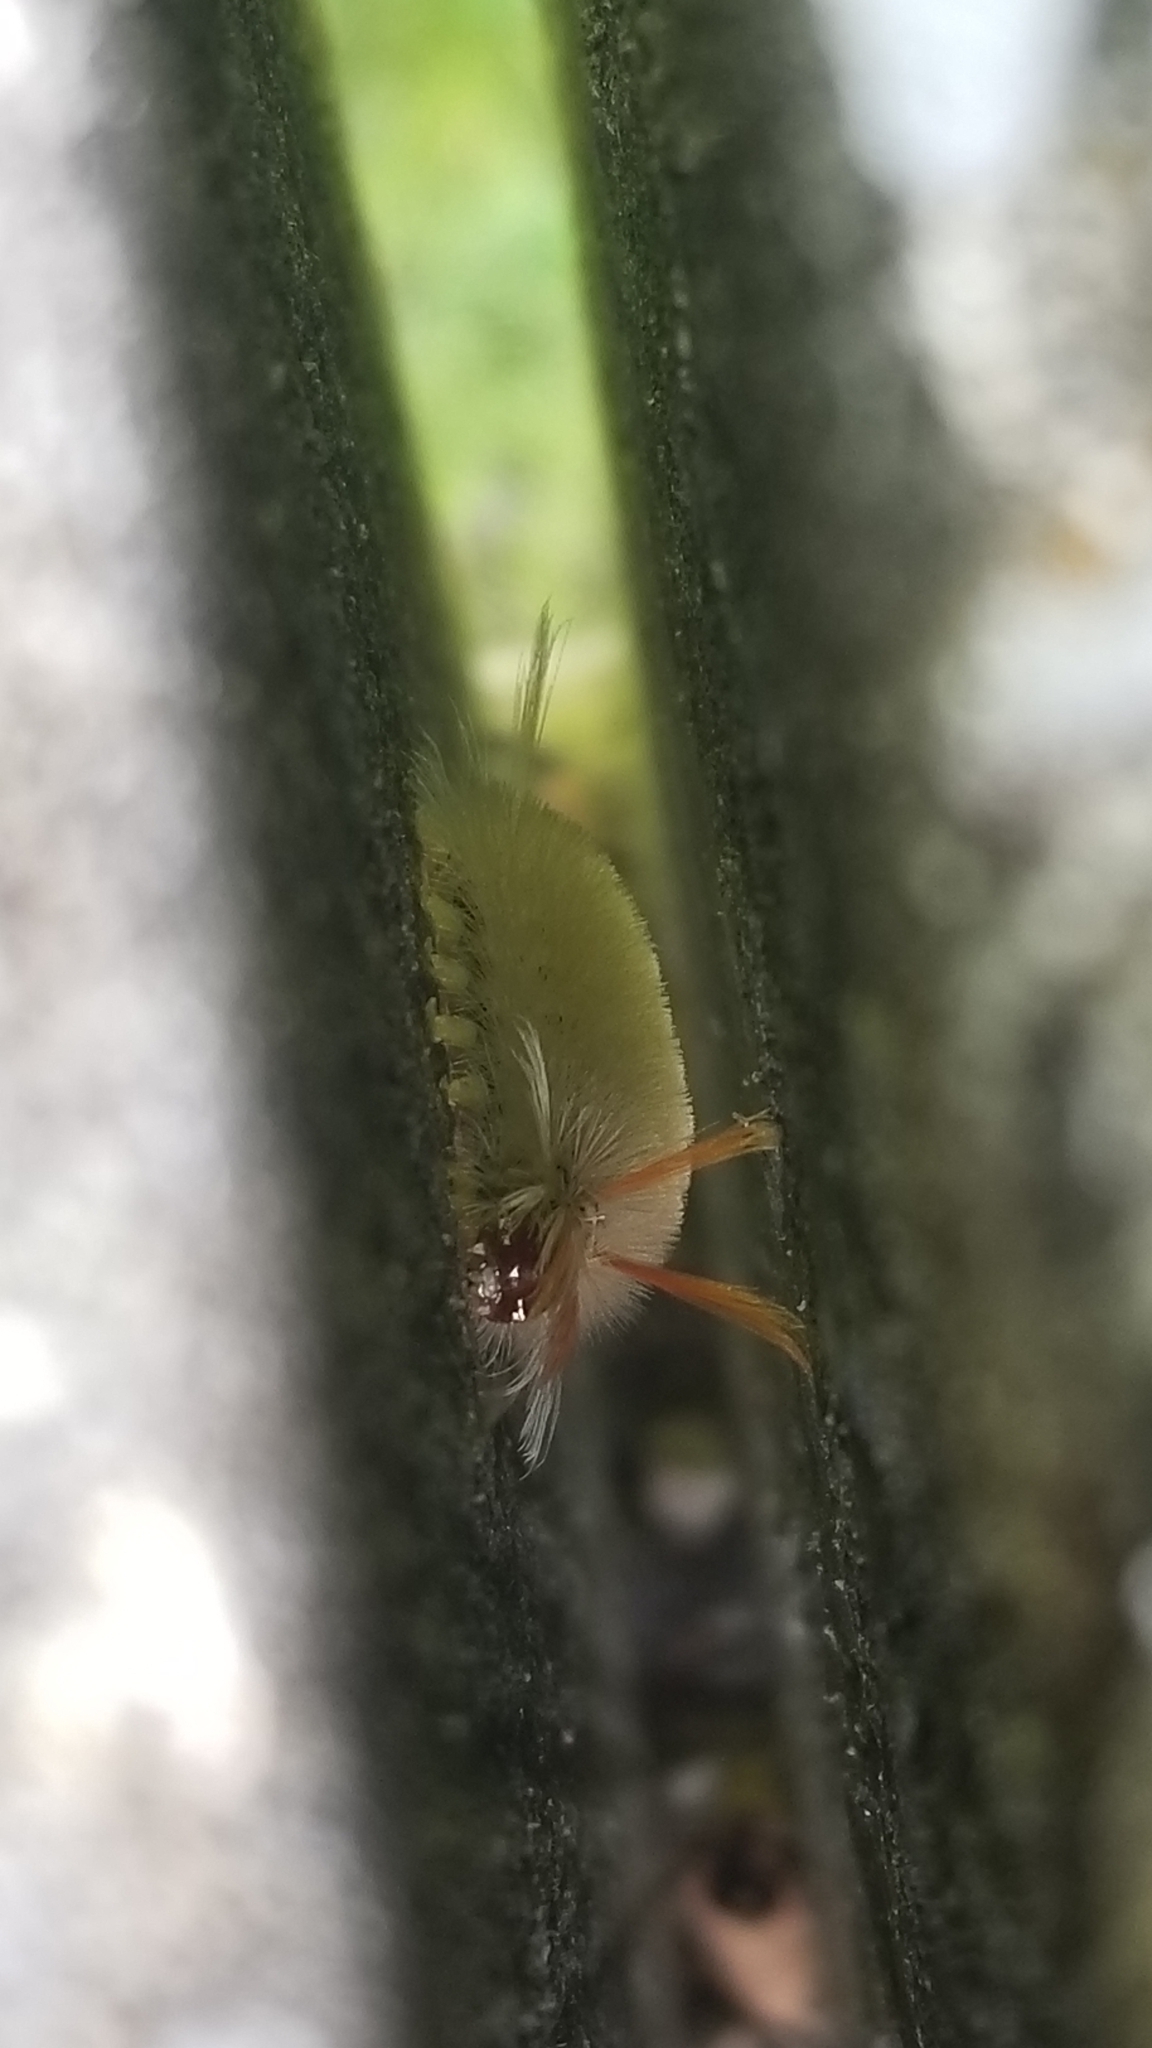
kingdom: Animalia
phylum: Arthropoda
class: Insecta
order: Lepidoptera
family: Erebidae
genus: Halysidota
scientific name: Halysidota harrisii
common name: Sycamore tussock moth
